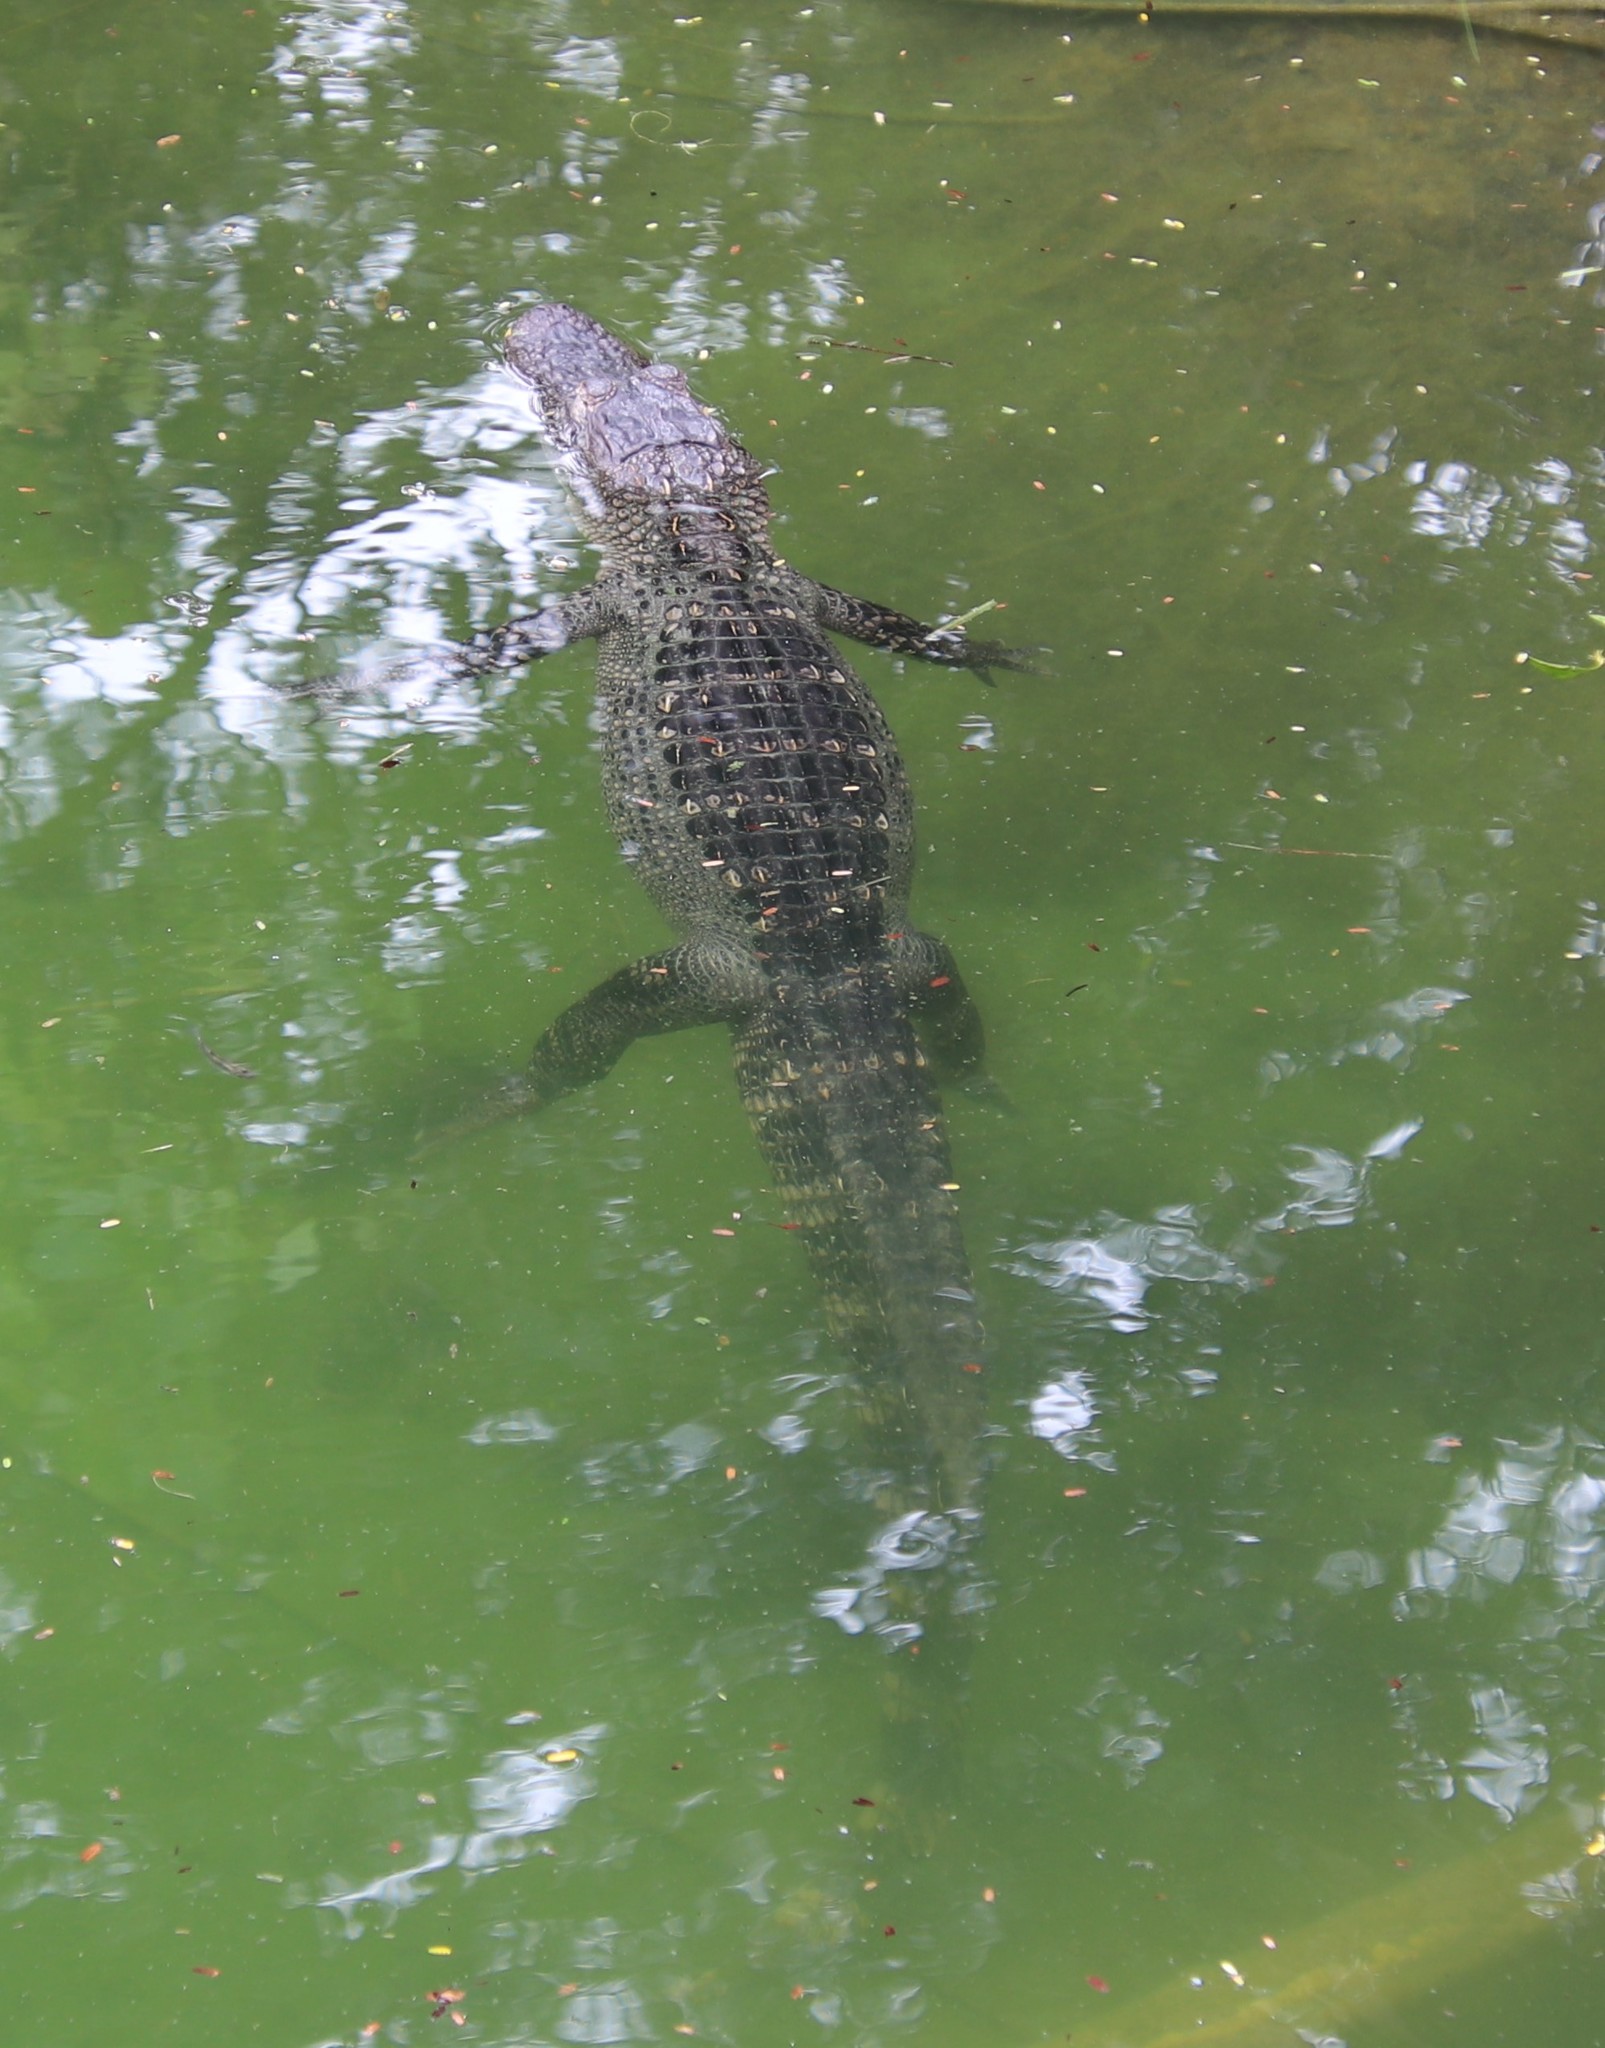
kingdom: Animalia
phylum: Chordata
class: Crocodylia
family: Alligatoridae
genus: Alligator
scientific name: Alligator mississippiensis
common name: American alligator
